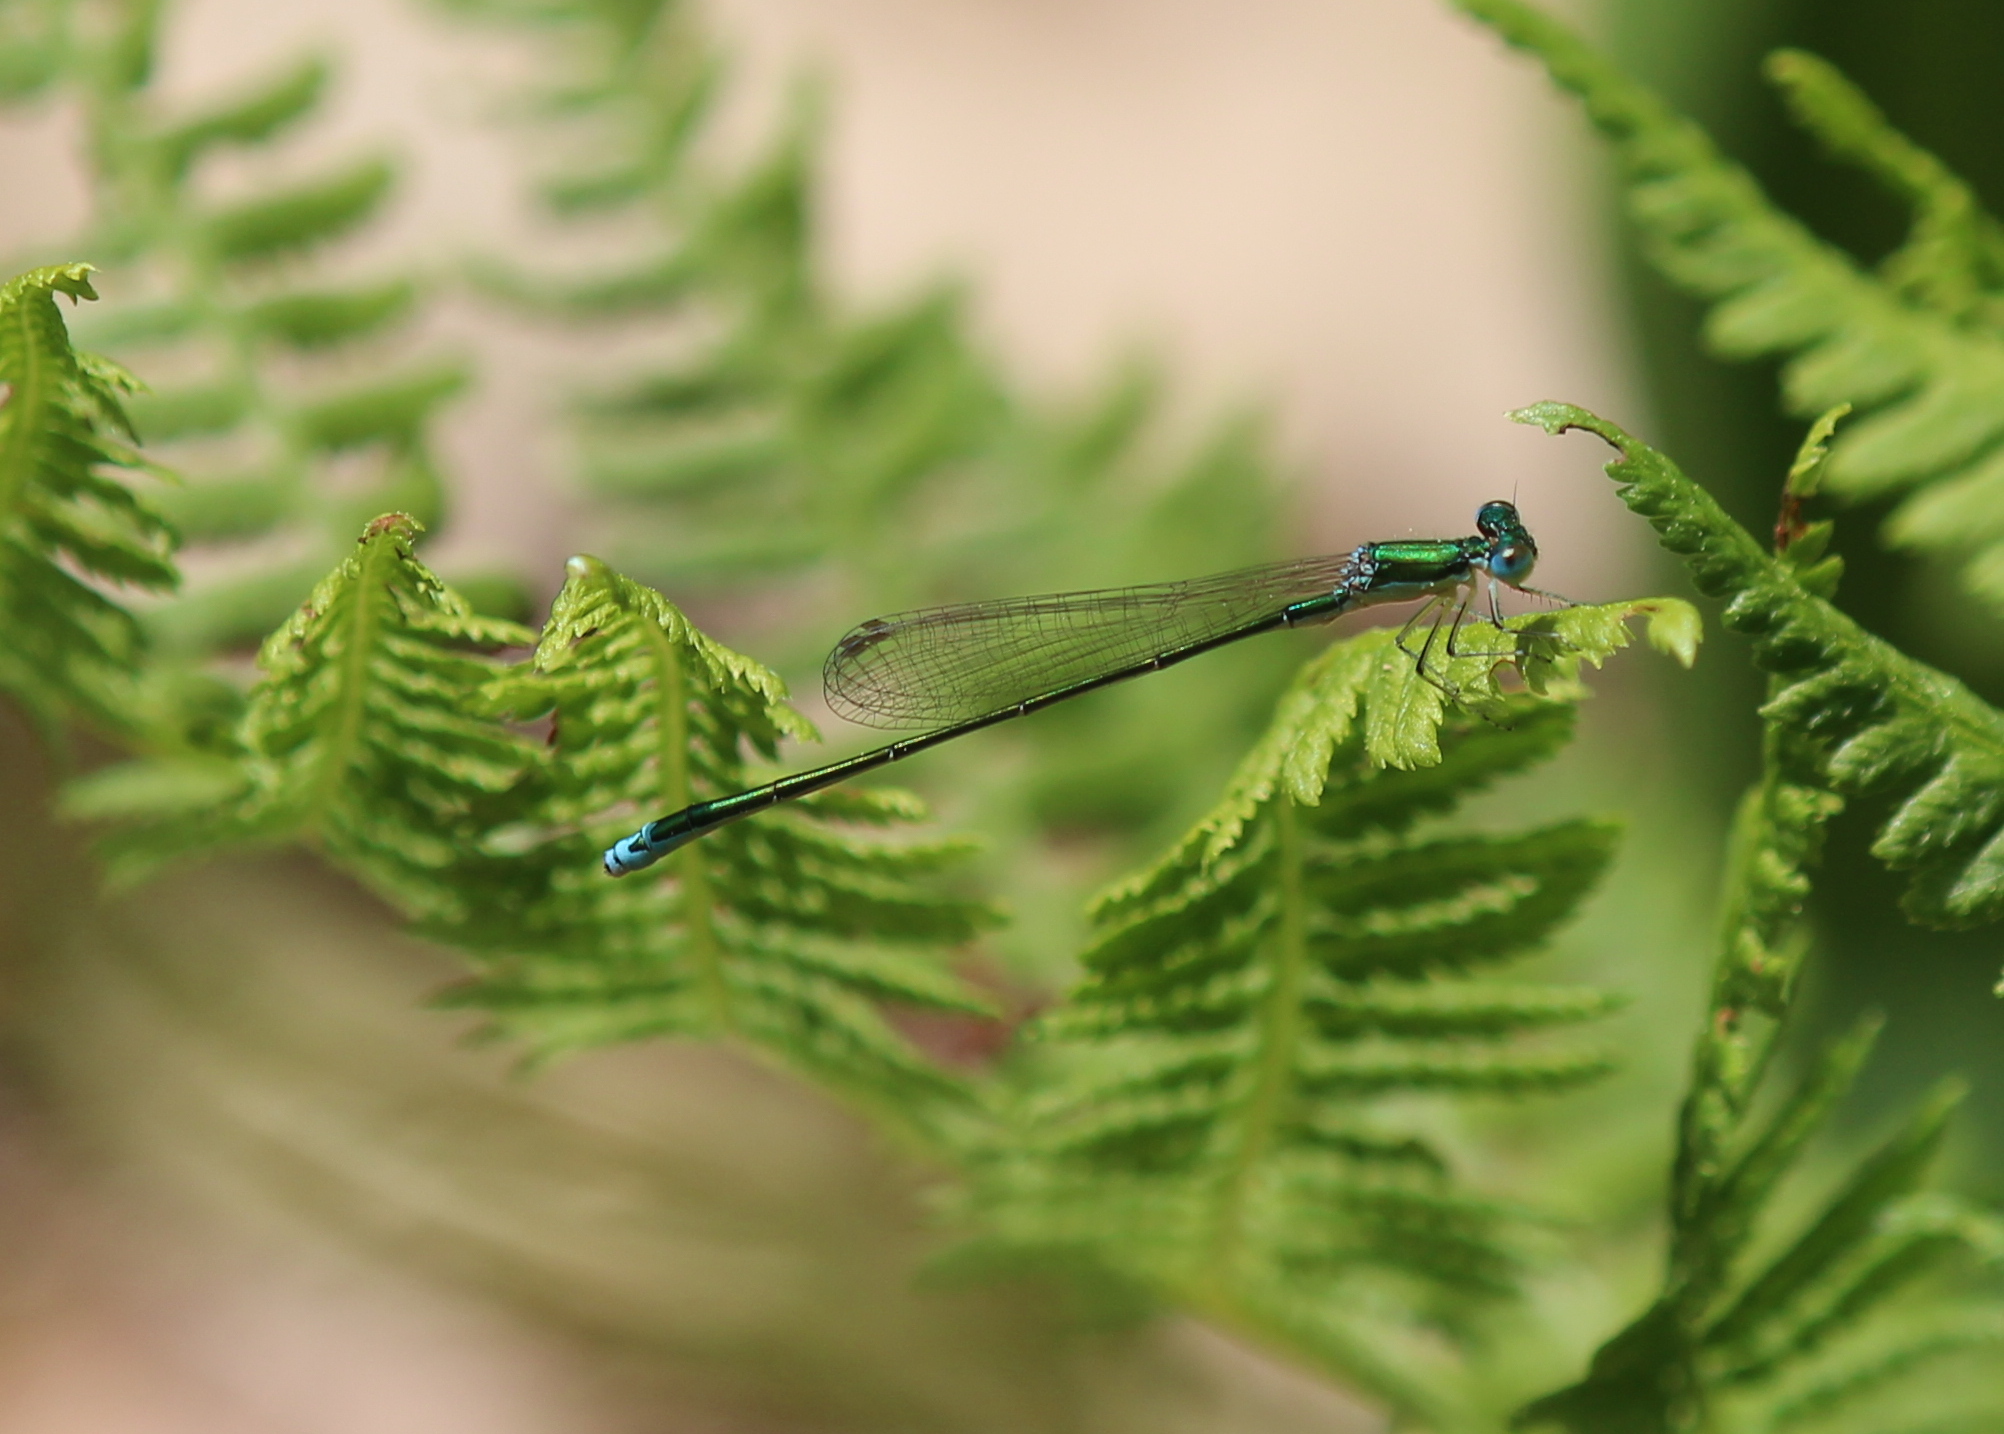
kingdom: Animalia
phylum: Arthropoda
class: Insecta
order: Odonata
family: Coenagrionidae
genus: Nehalennia
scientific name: Nehalennia irene
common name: Sedge sprite
